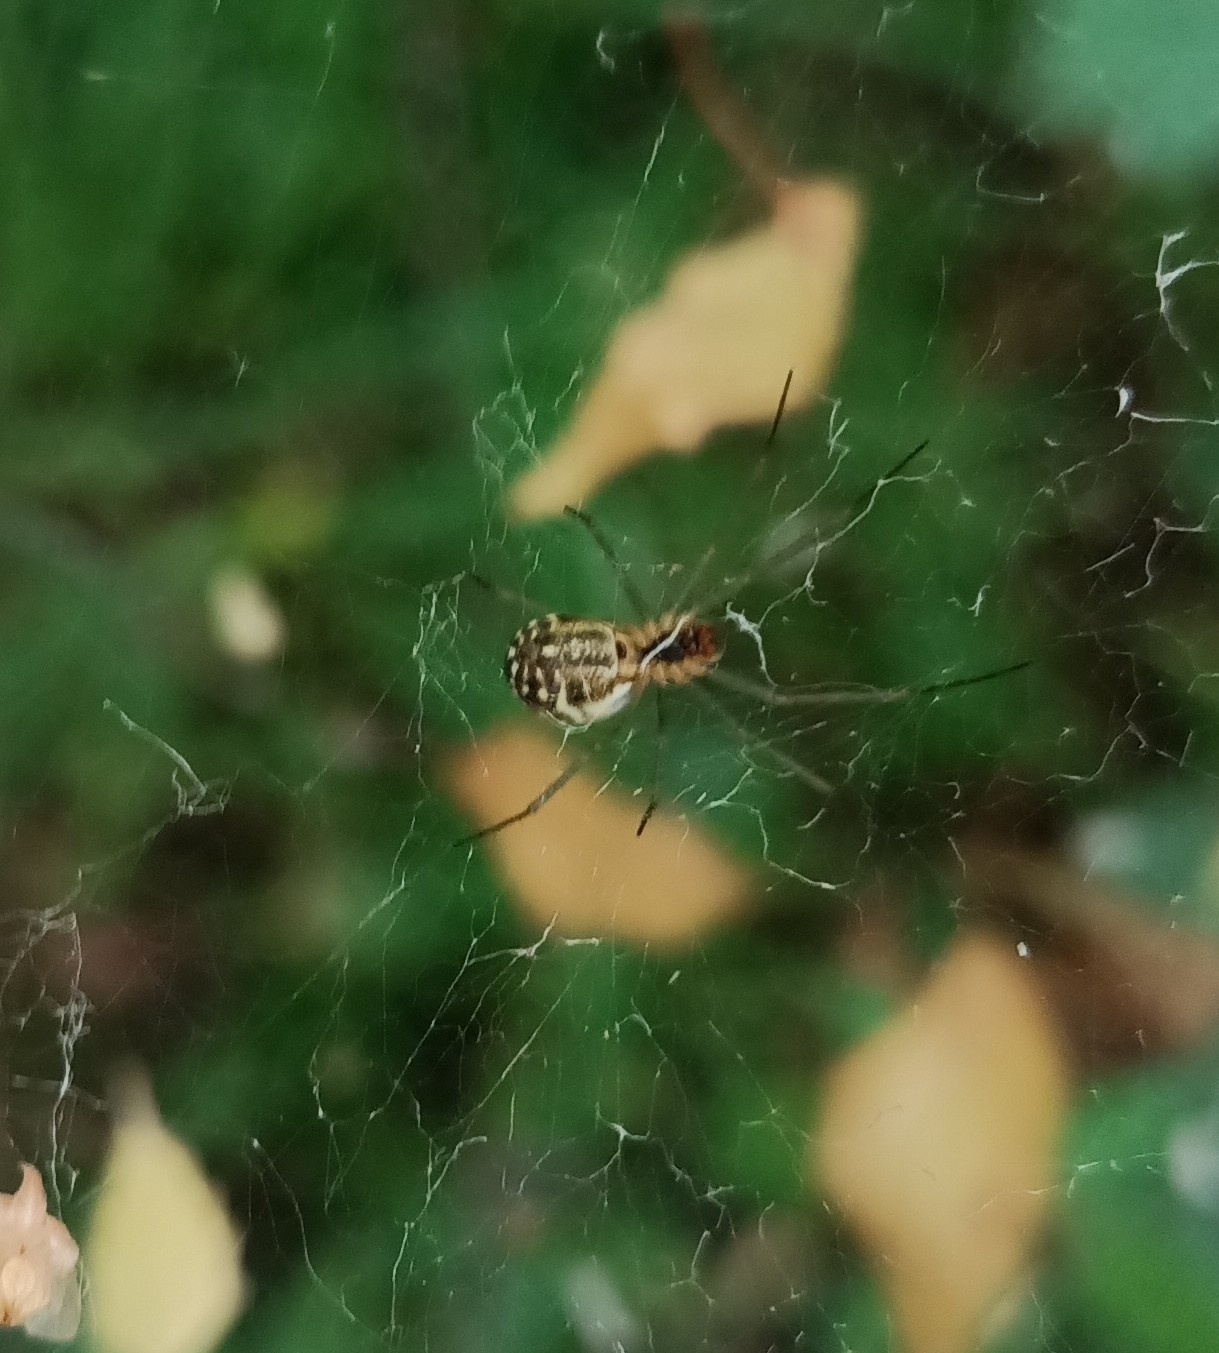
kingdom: Animalia
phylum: Arthropoda
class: Arachnida
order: Araneae
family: Linyphiidae
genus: Linyphia
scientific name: Linyphia triangularis
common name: Money spider
